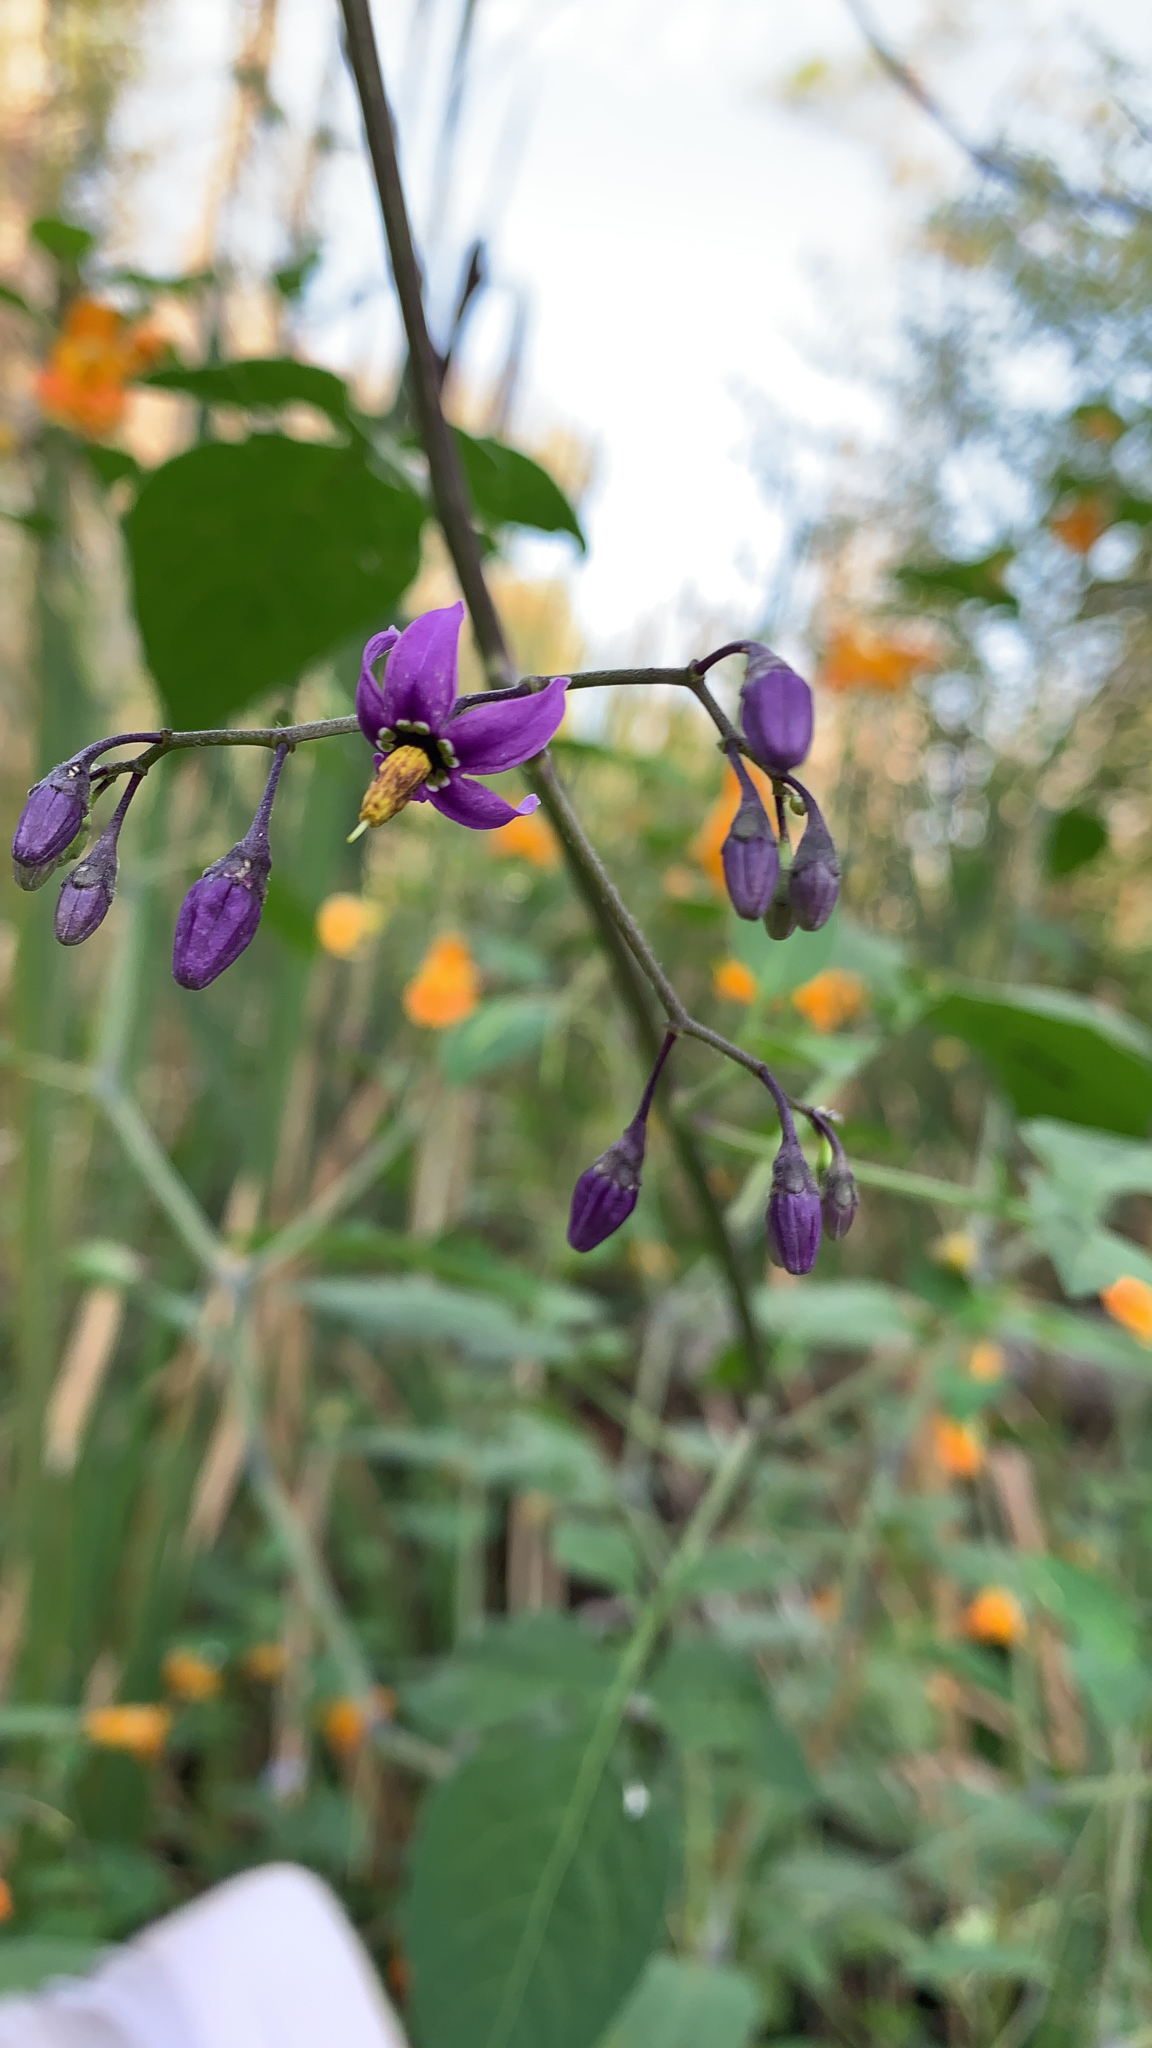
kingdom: Plantae
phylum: Tracheophyta
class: Magnoliopsida
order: Solanales
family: Solanaceae
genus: Solanum
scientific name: Solanum dulcamara
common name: Climbing nightshade
